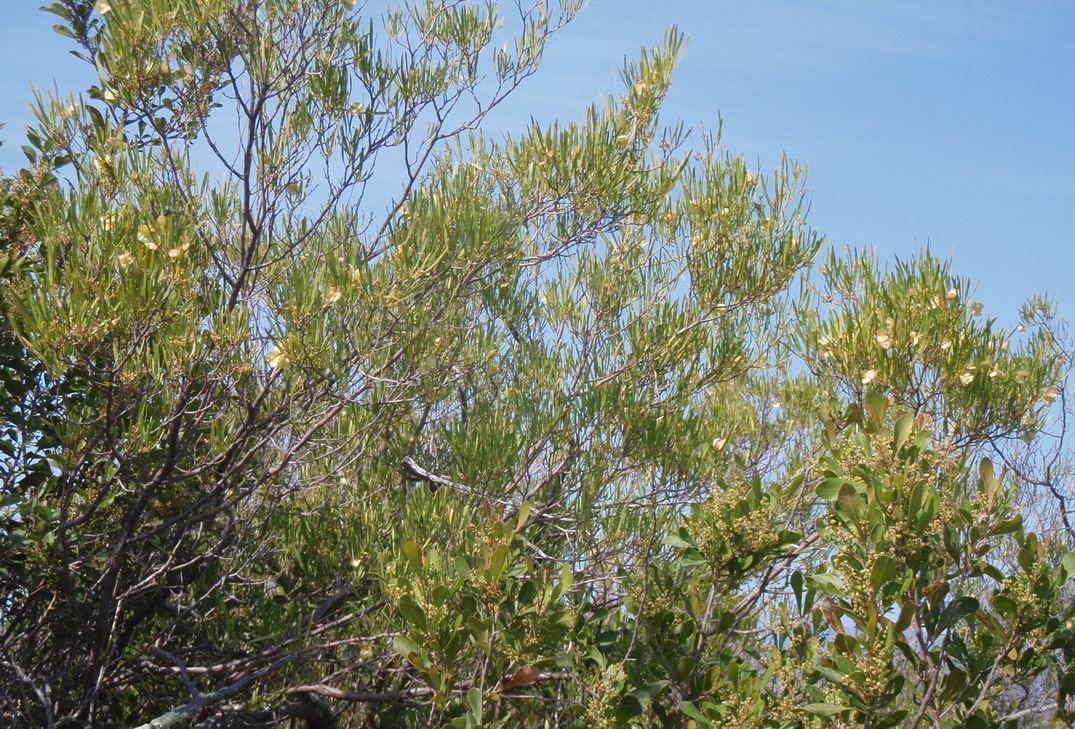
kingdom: Plantae
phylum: Tracheophyta
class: Magnoliopsida
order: Sapindales
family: Sapindaceae
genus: Dodonaea
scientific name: Dodonaea viscosa
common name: Hopbush
